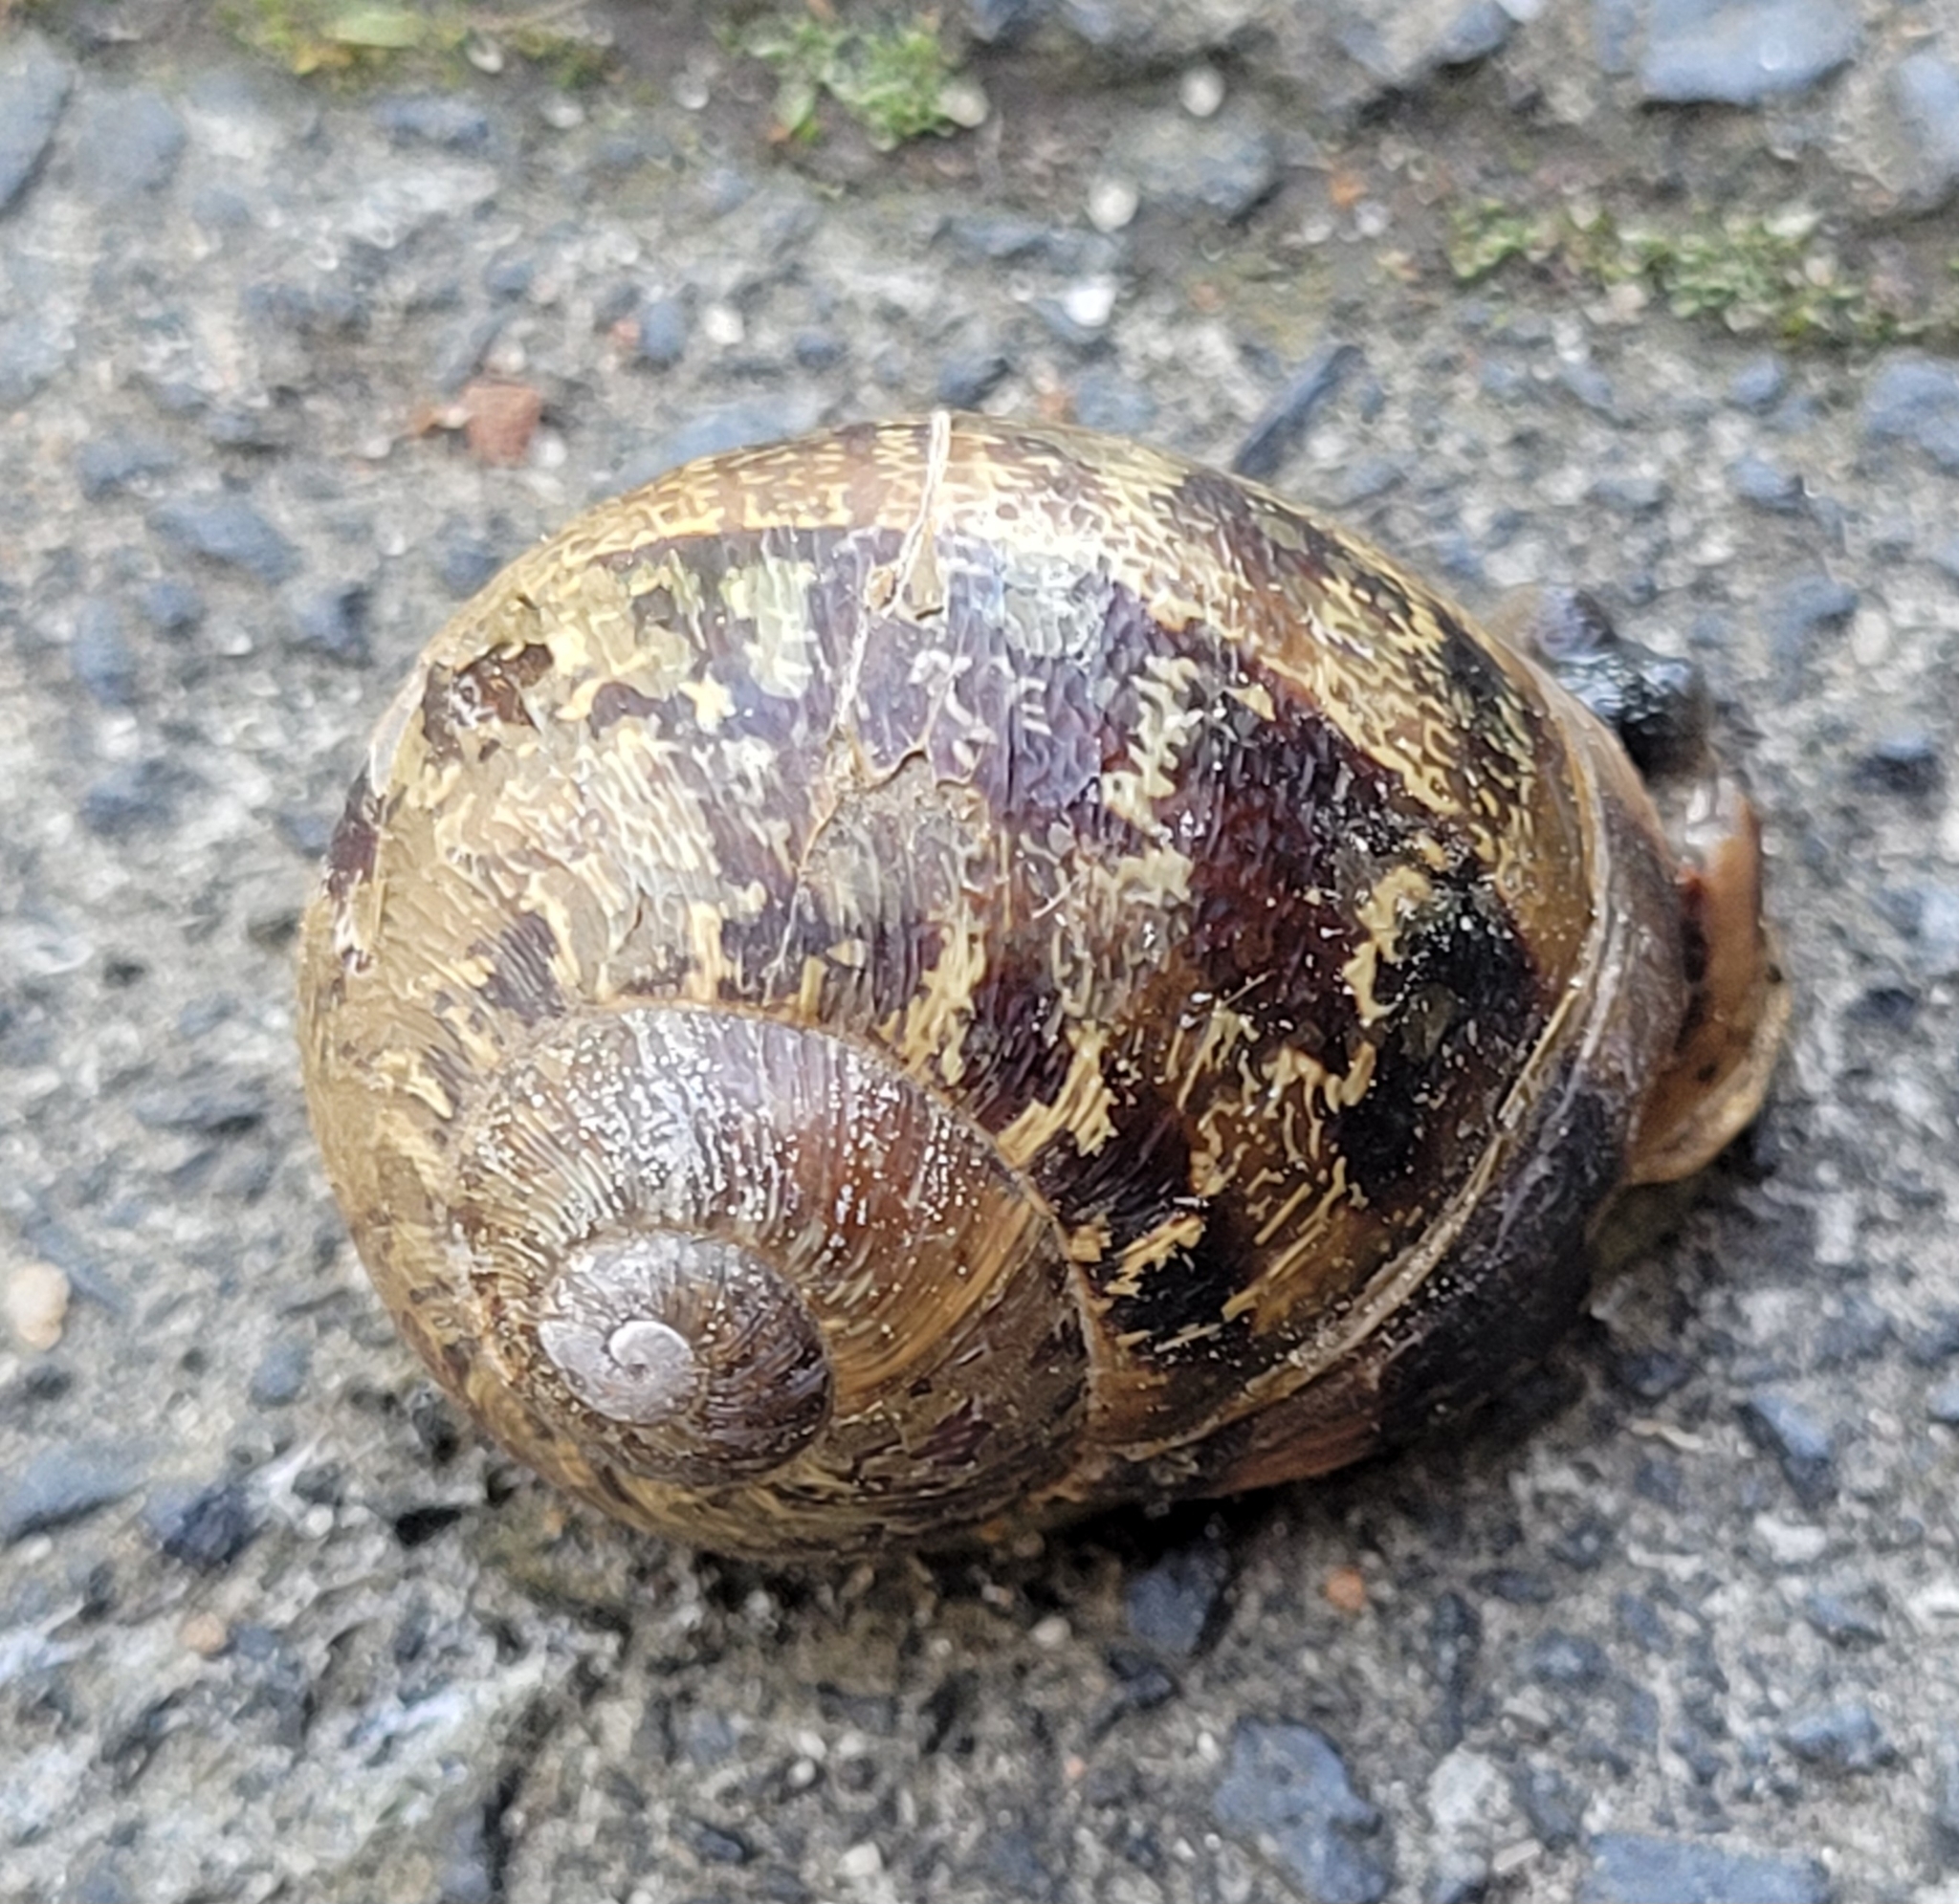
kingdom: Animalia
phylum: Mollusca
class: Gastropoda
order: Stylommatophora
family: Helicidae
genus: Cornu
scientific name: Cornu aspersum
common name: Brown garden snail
